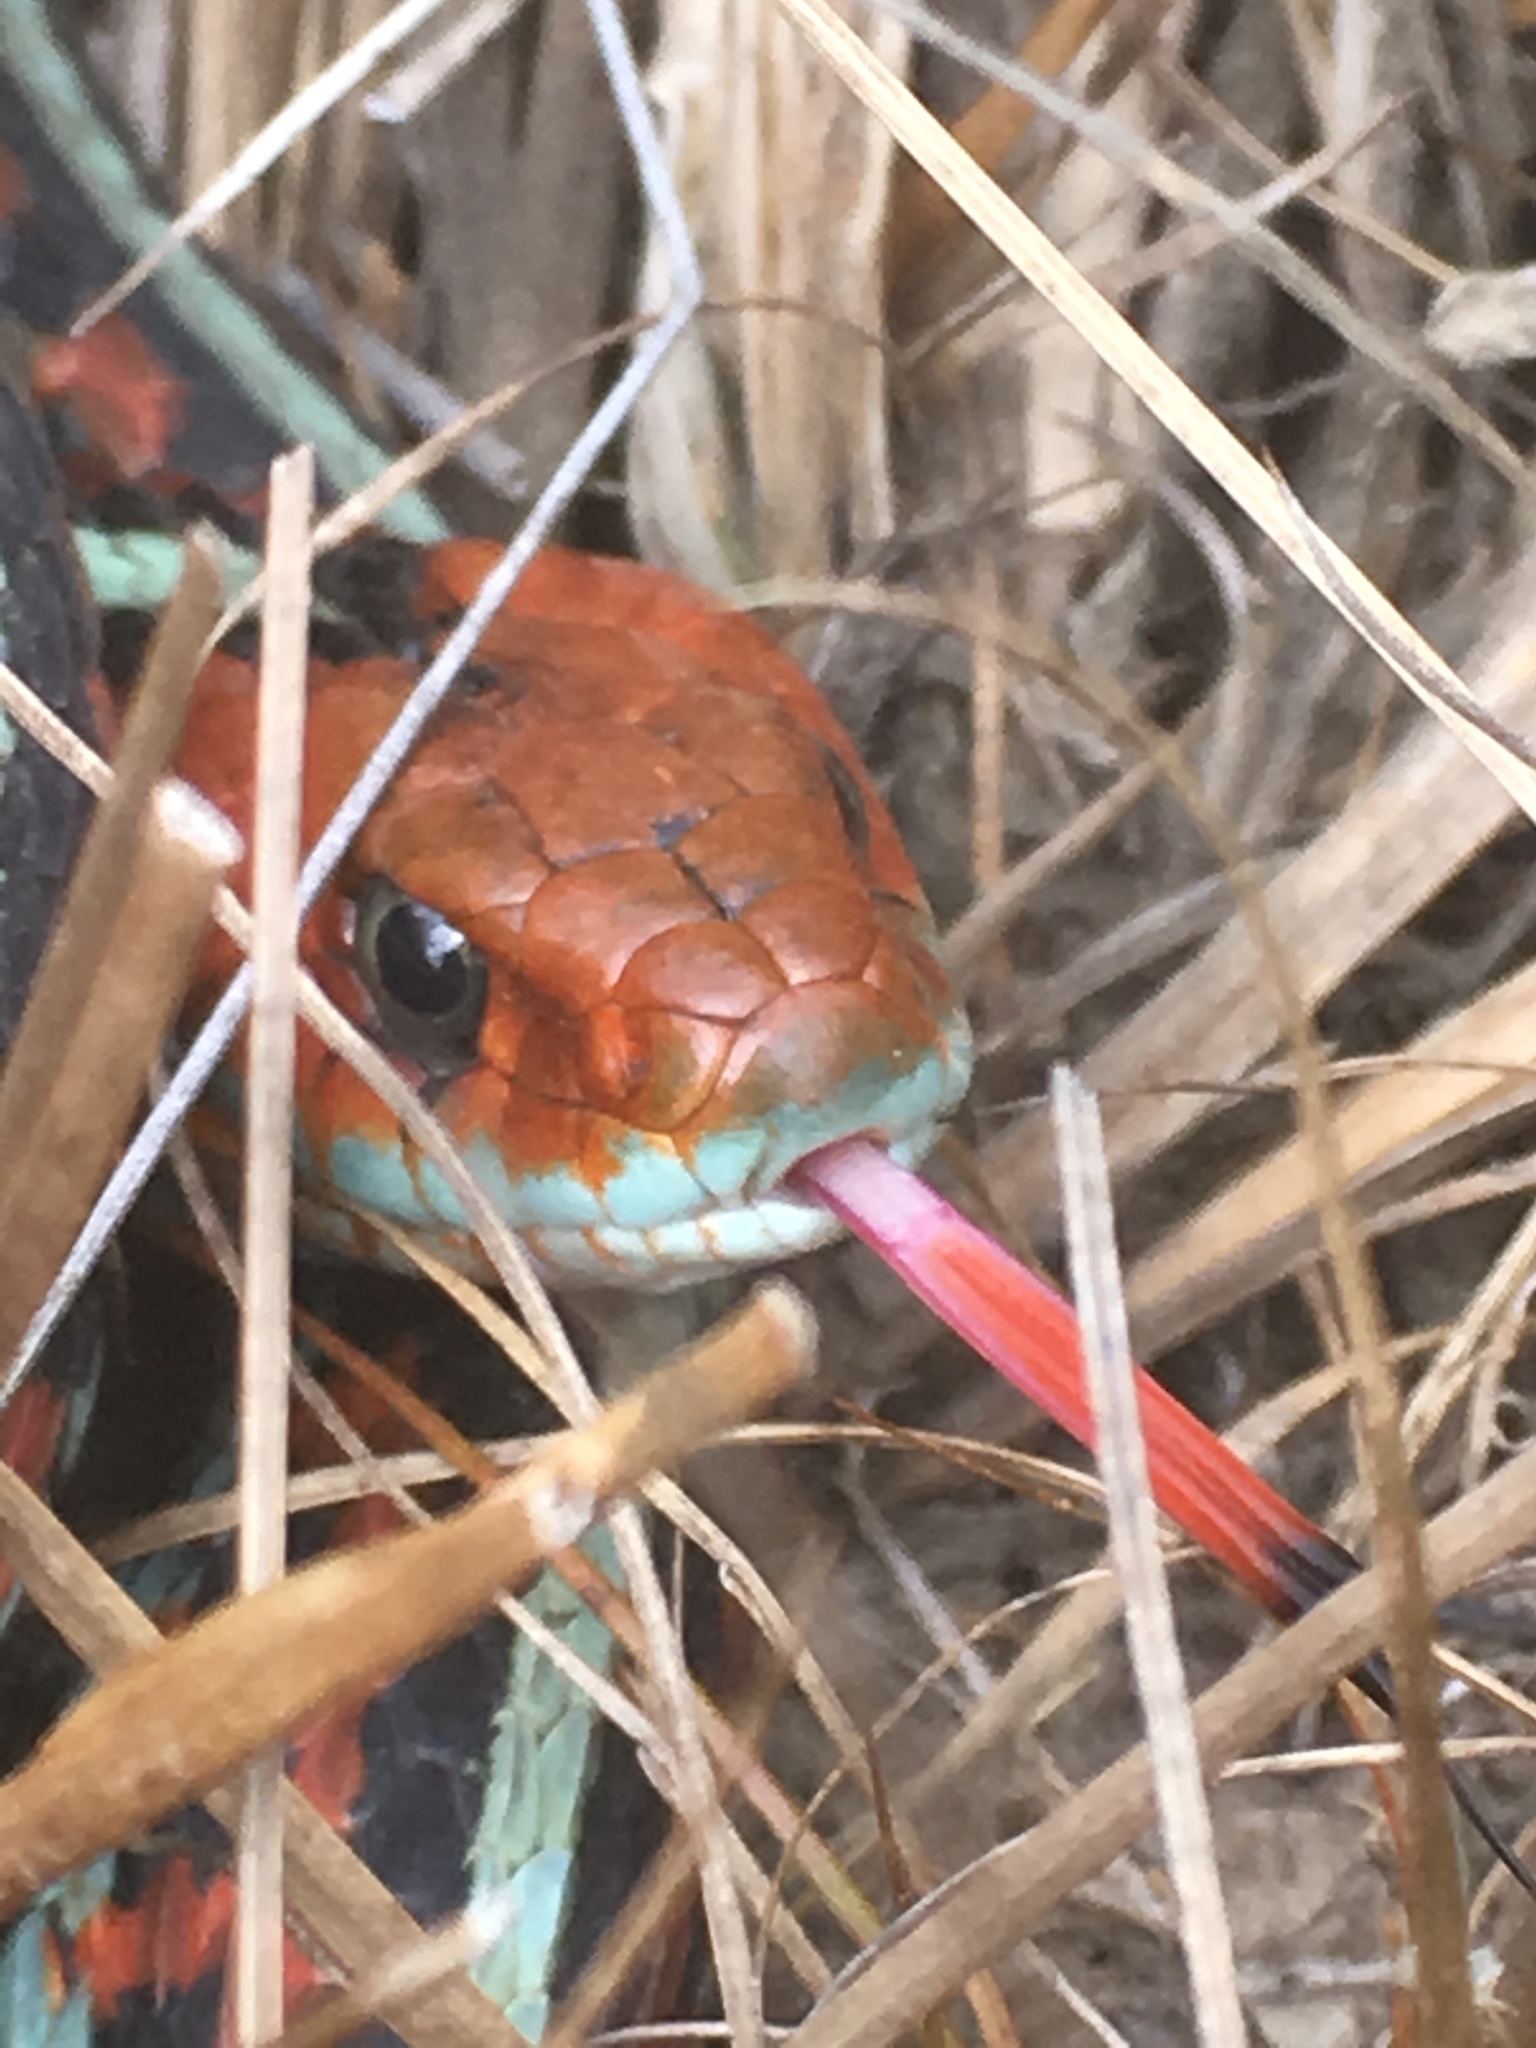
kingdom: Animalia
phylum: Chordata
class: Squamata
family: Colubridae
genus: Thamnophis
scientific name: Thamnophis sirtalis
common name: Common garter snake
